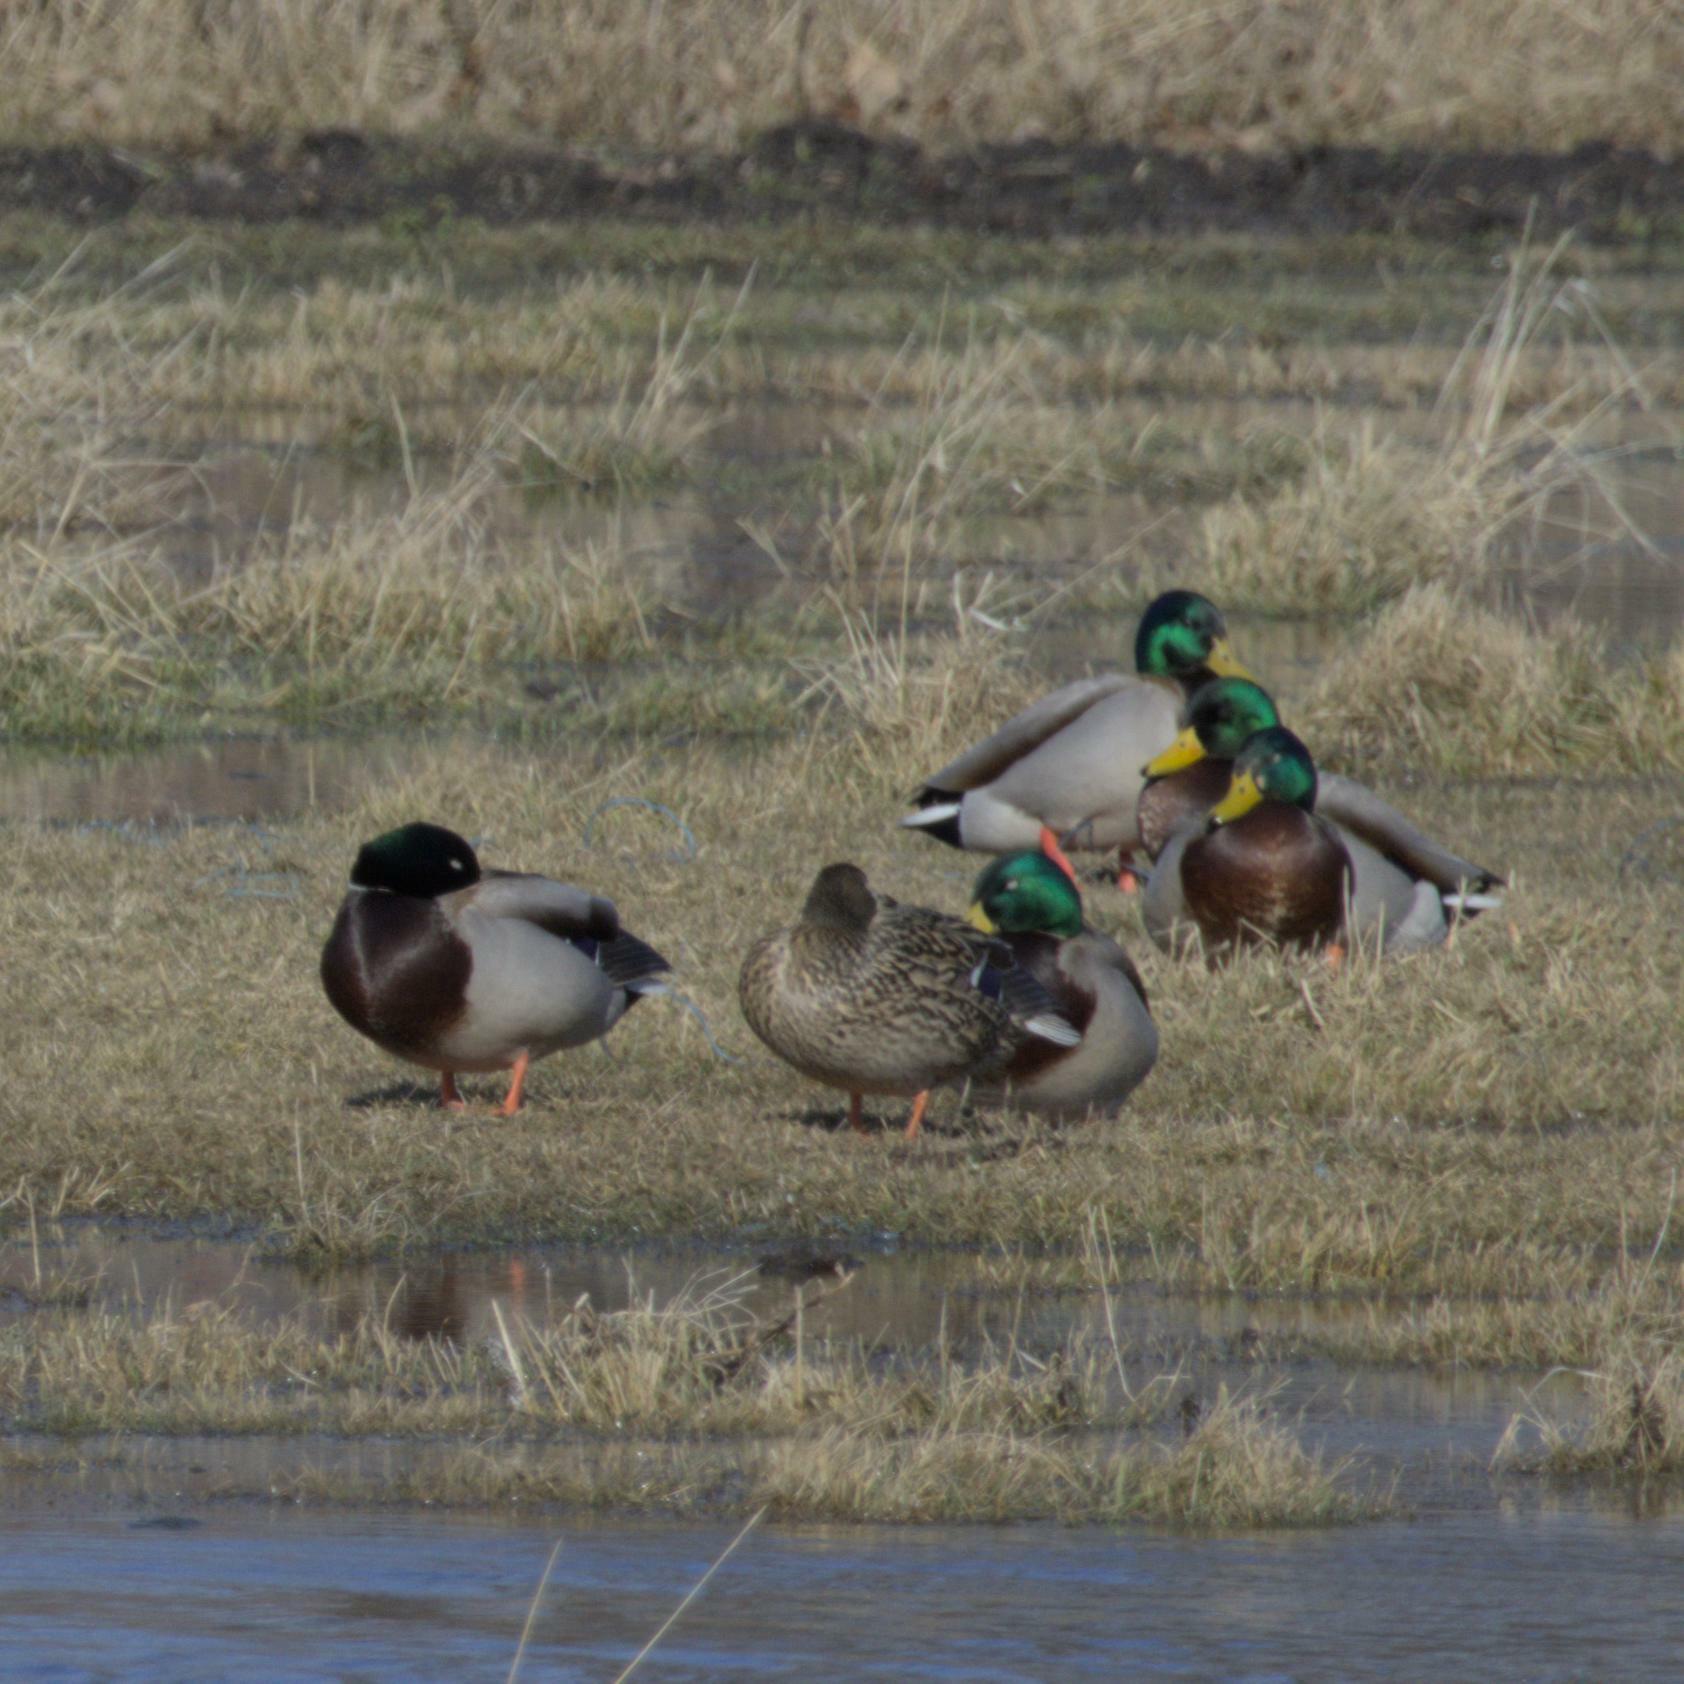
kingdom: Animalia
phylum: Chordata
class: Aves
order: Anseriformes
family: Anatidae
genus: Anas
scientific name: Anas platyrhynchos
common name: Mallard
